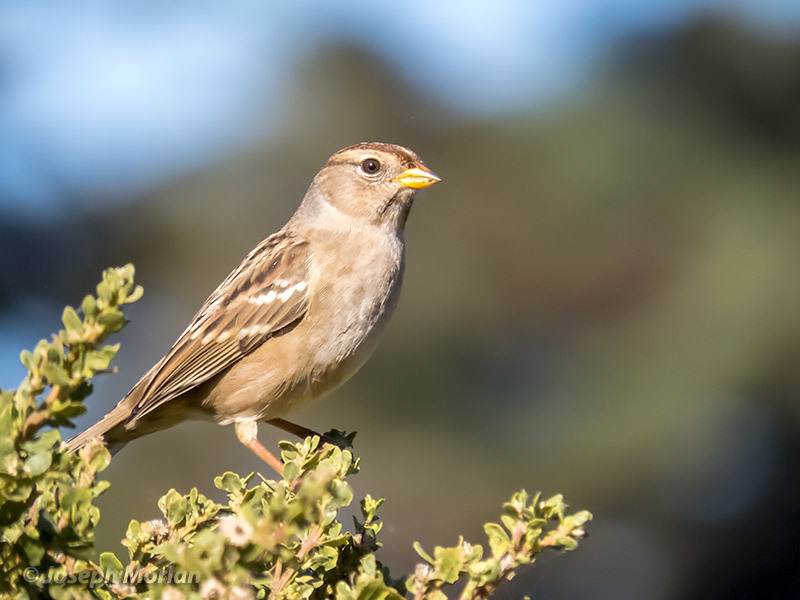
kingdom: Animalia
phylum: Chordata
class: Aves
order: Passeriformes
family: Passerellidae
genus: Zonotrichia
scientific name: Zonotrichia leucophrys
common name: White-crowned sparrow
